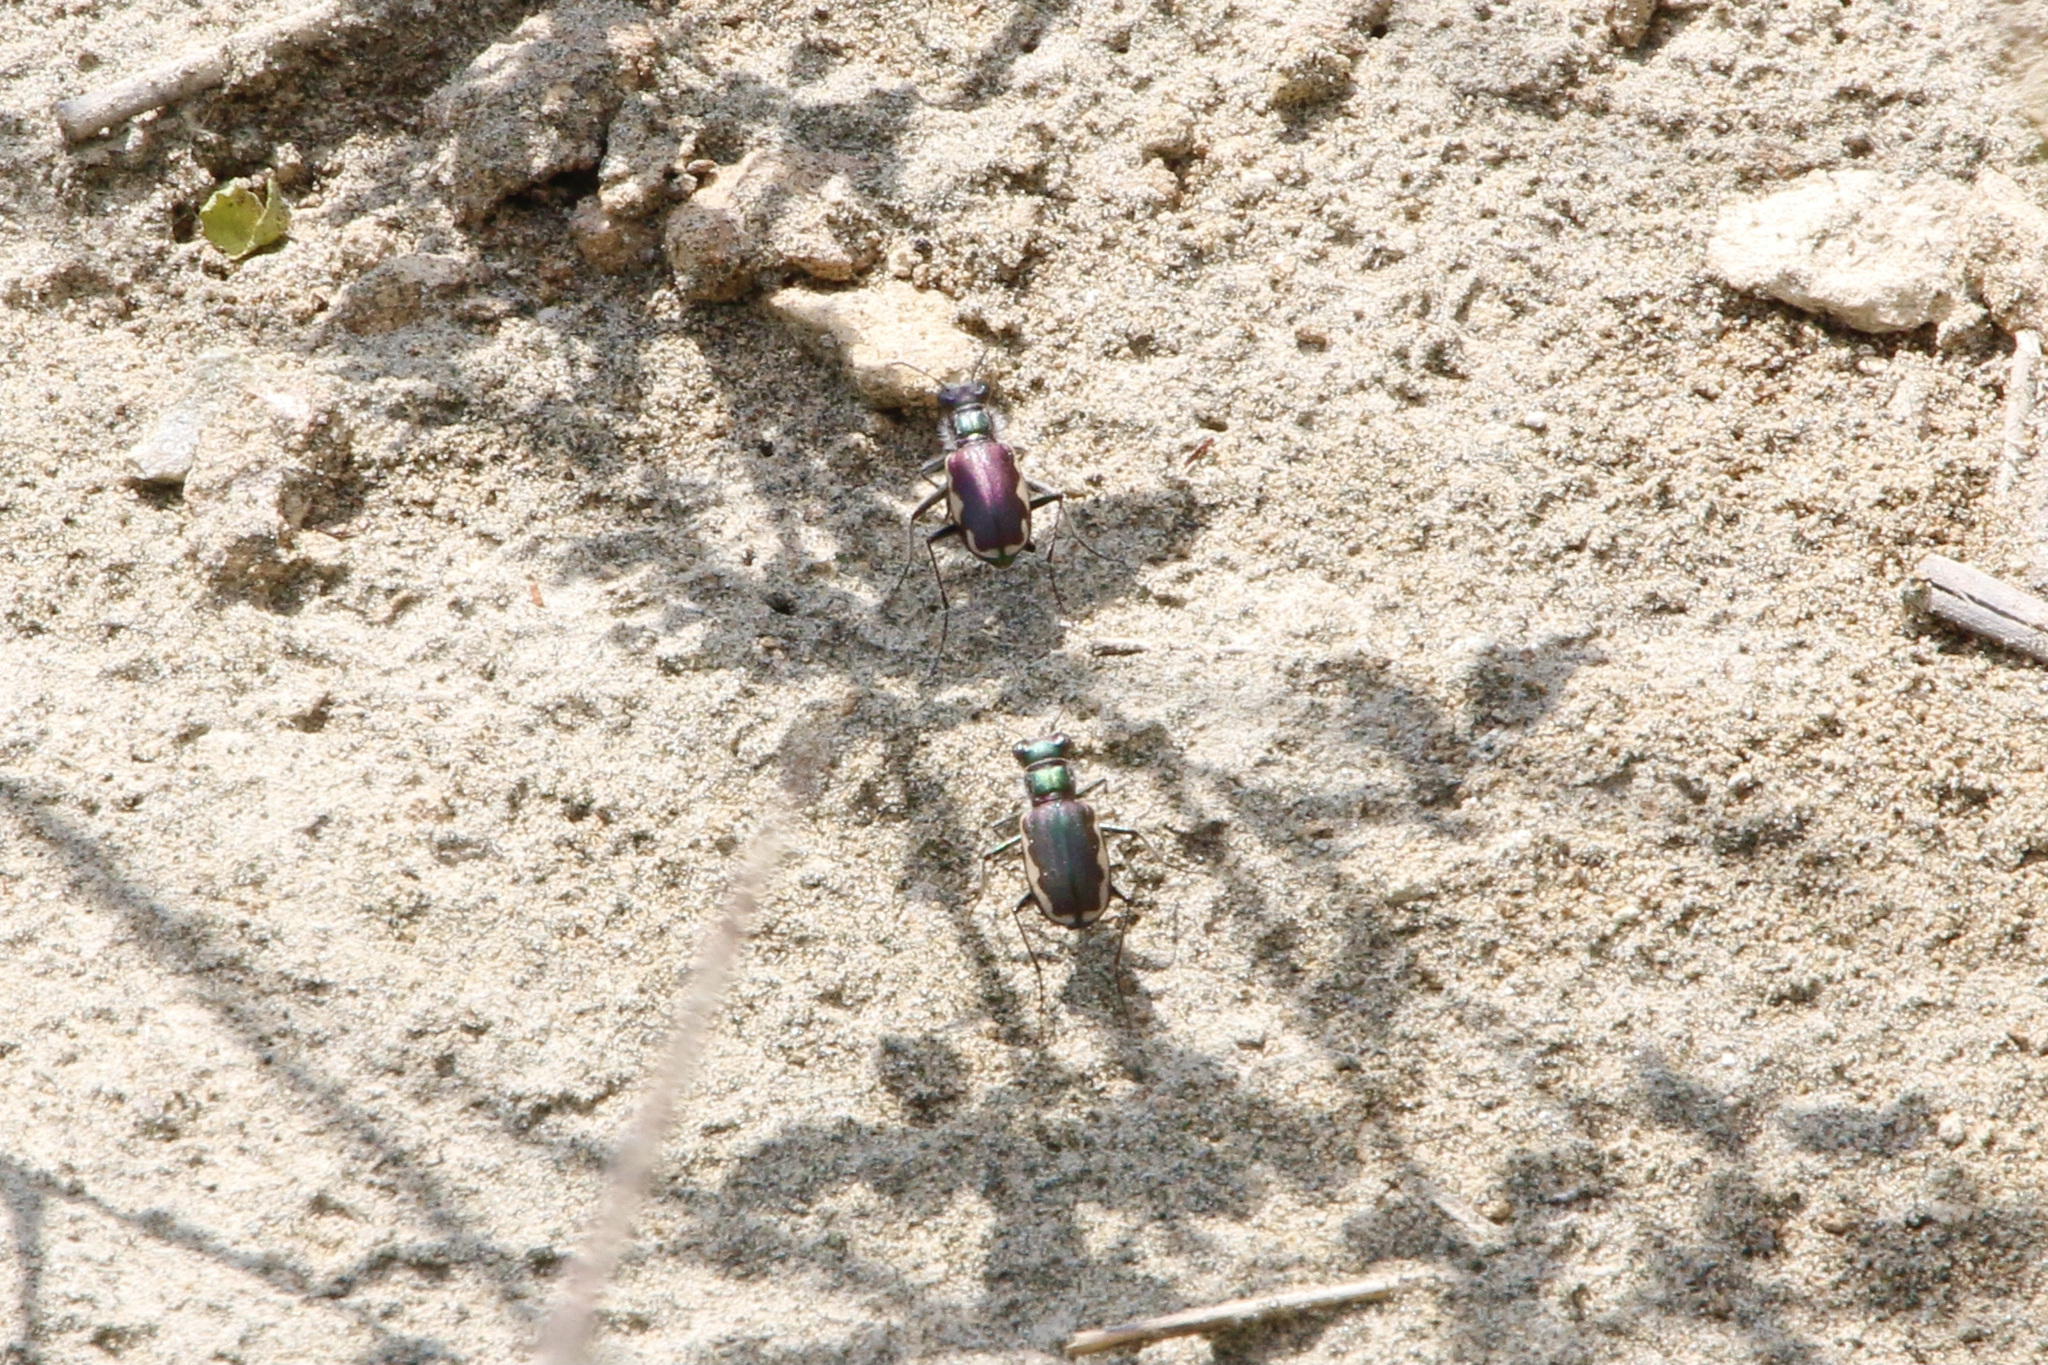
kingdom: Animalia
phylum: Arthropoda
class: Insecta
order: Coleoptera
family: Carabidae
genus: Cicindela
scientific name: Cicindela scutellaris
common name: Festive tiger beetle
